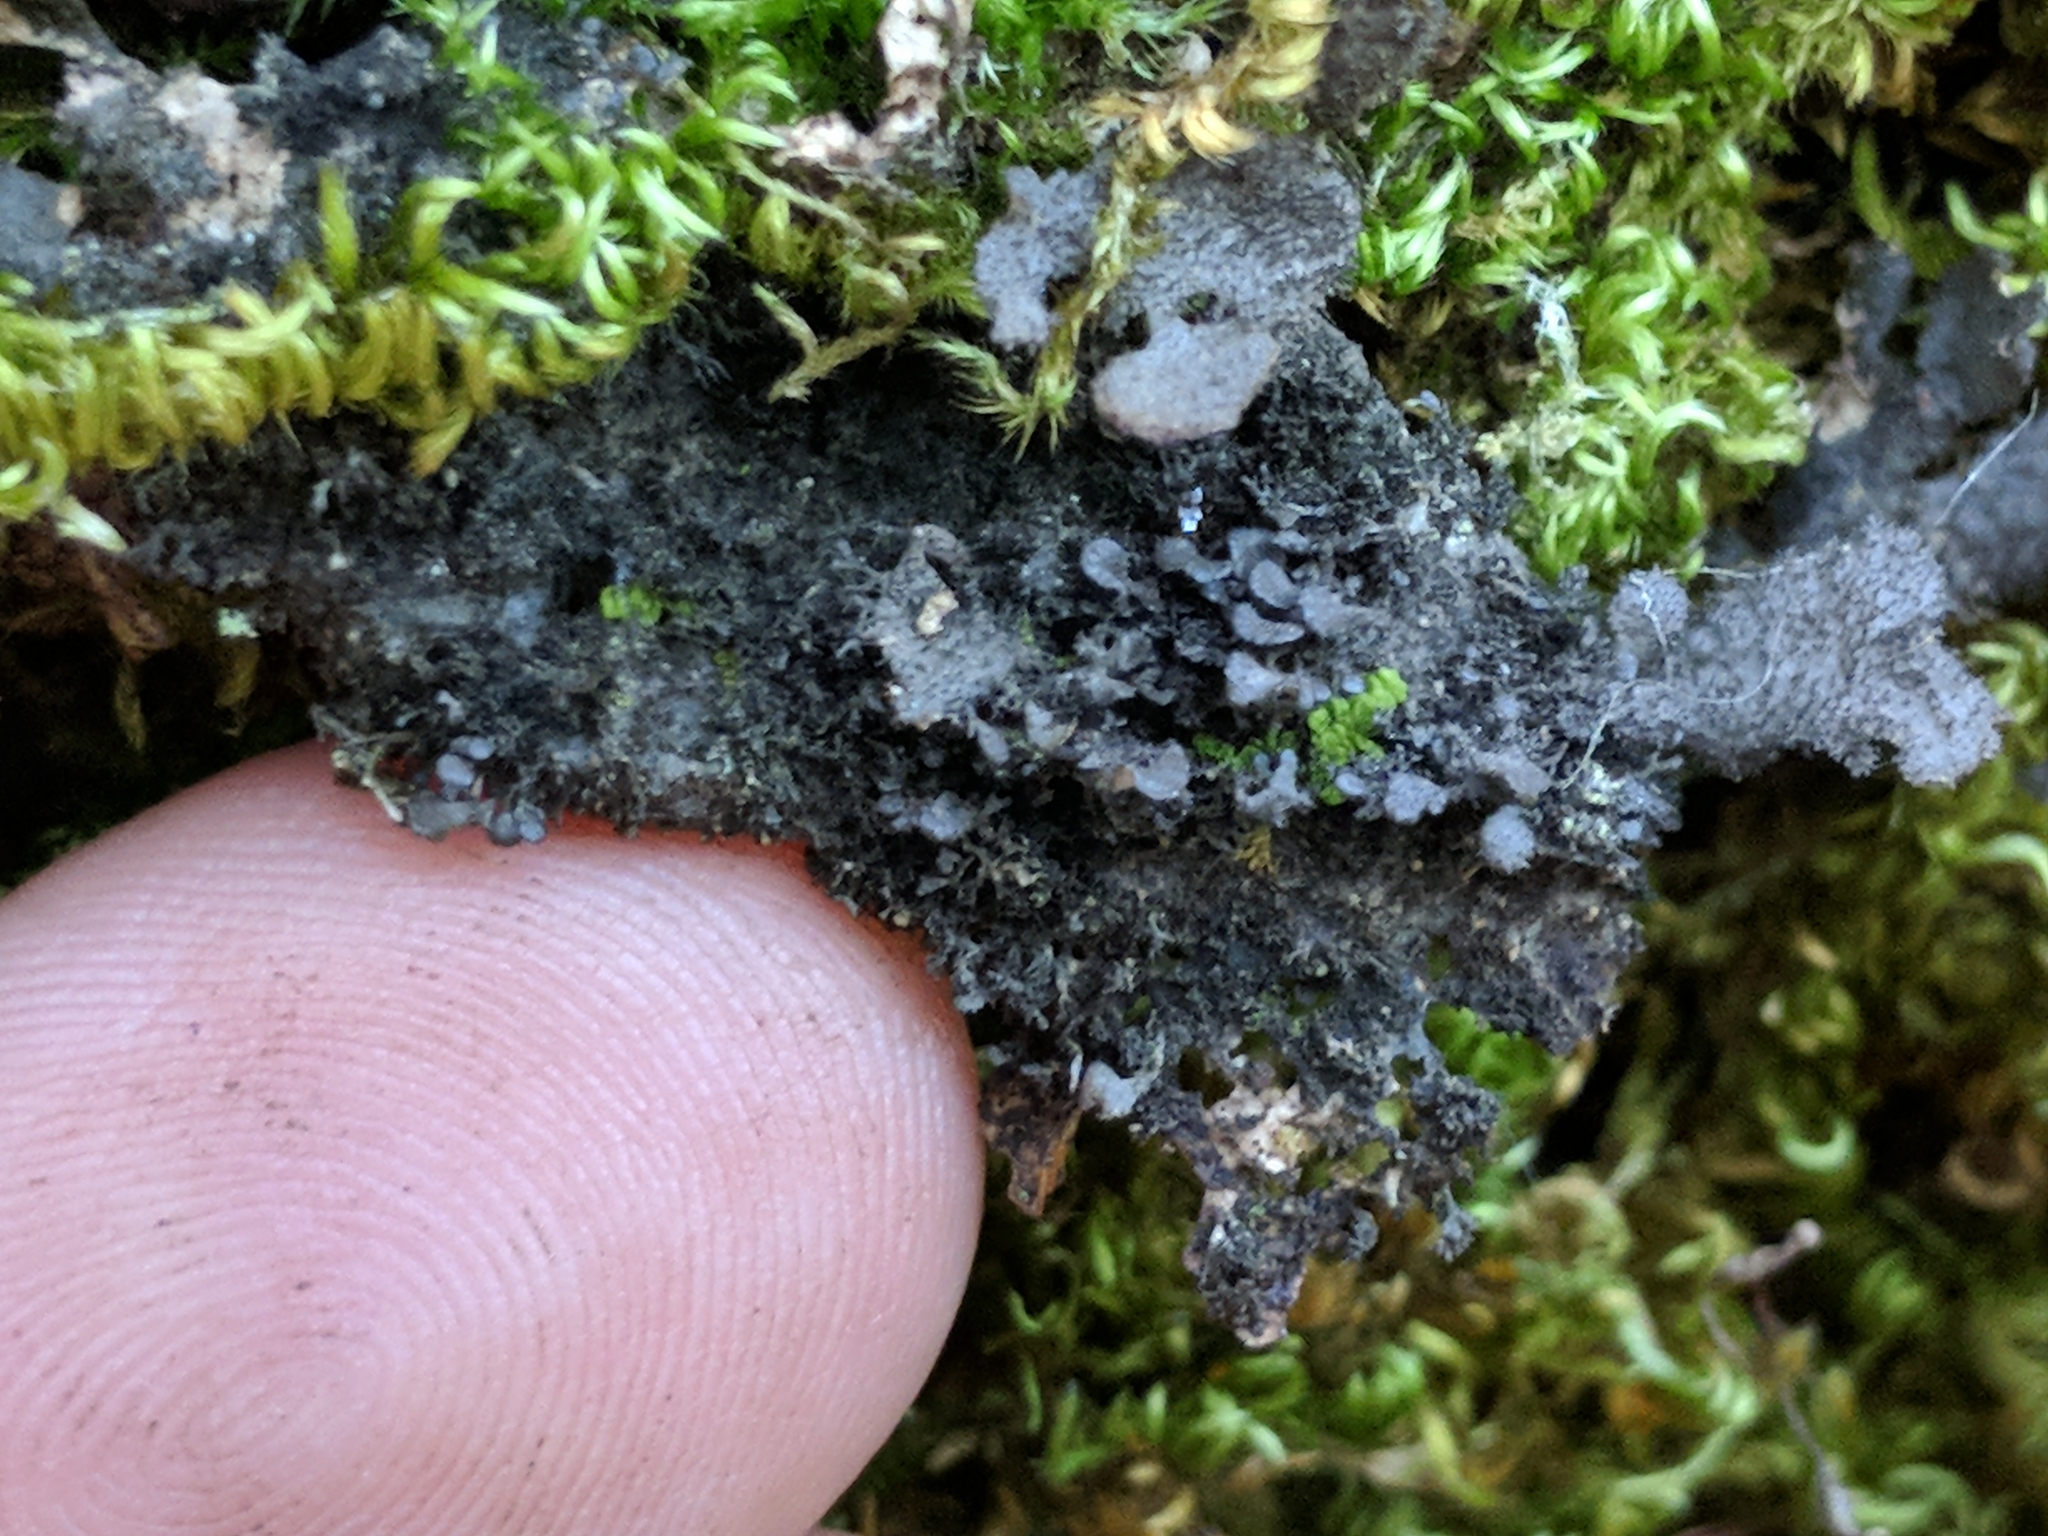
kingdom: Fungi
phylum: Ascomycota
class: Lecanoromycetes
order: Peltigerales
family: Lobariaceae
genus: Sticta
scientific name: Sticta fuliginosa
